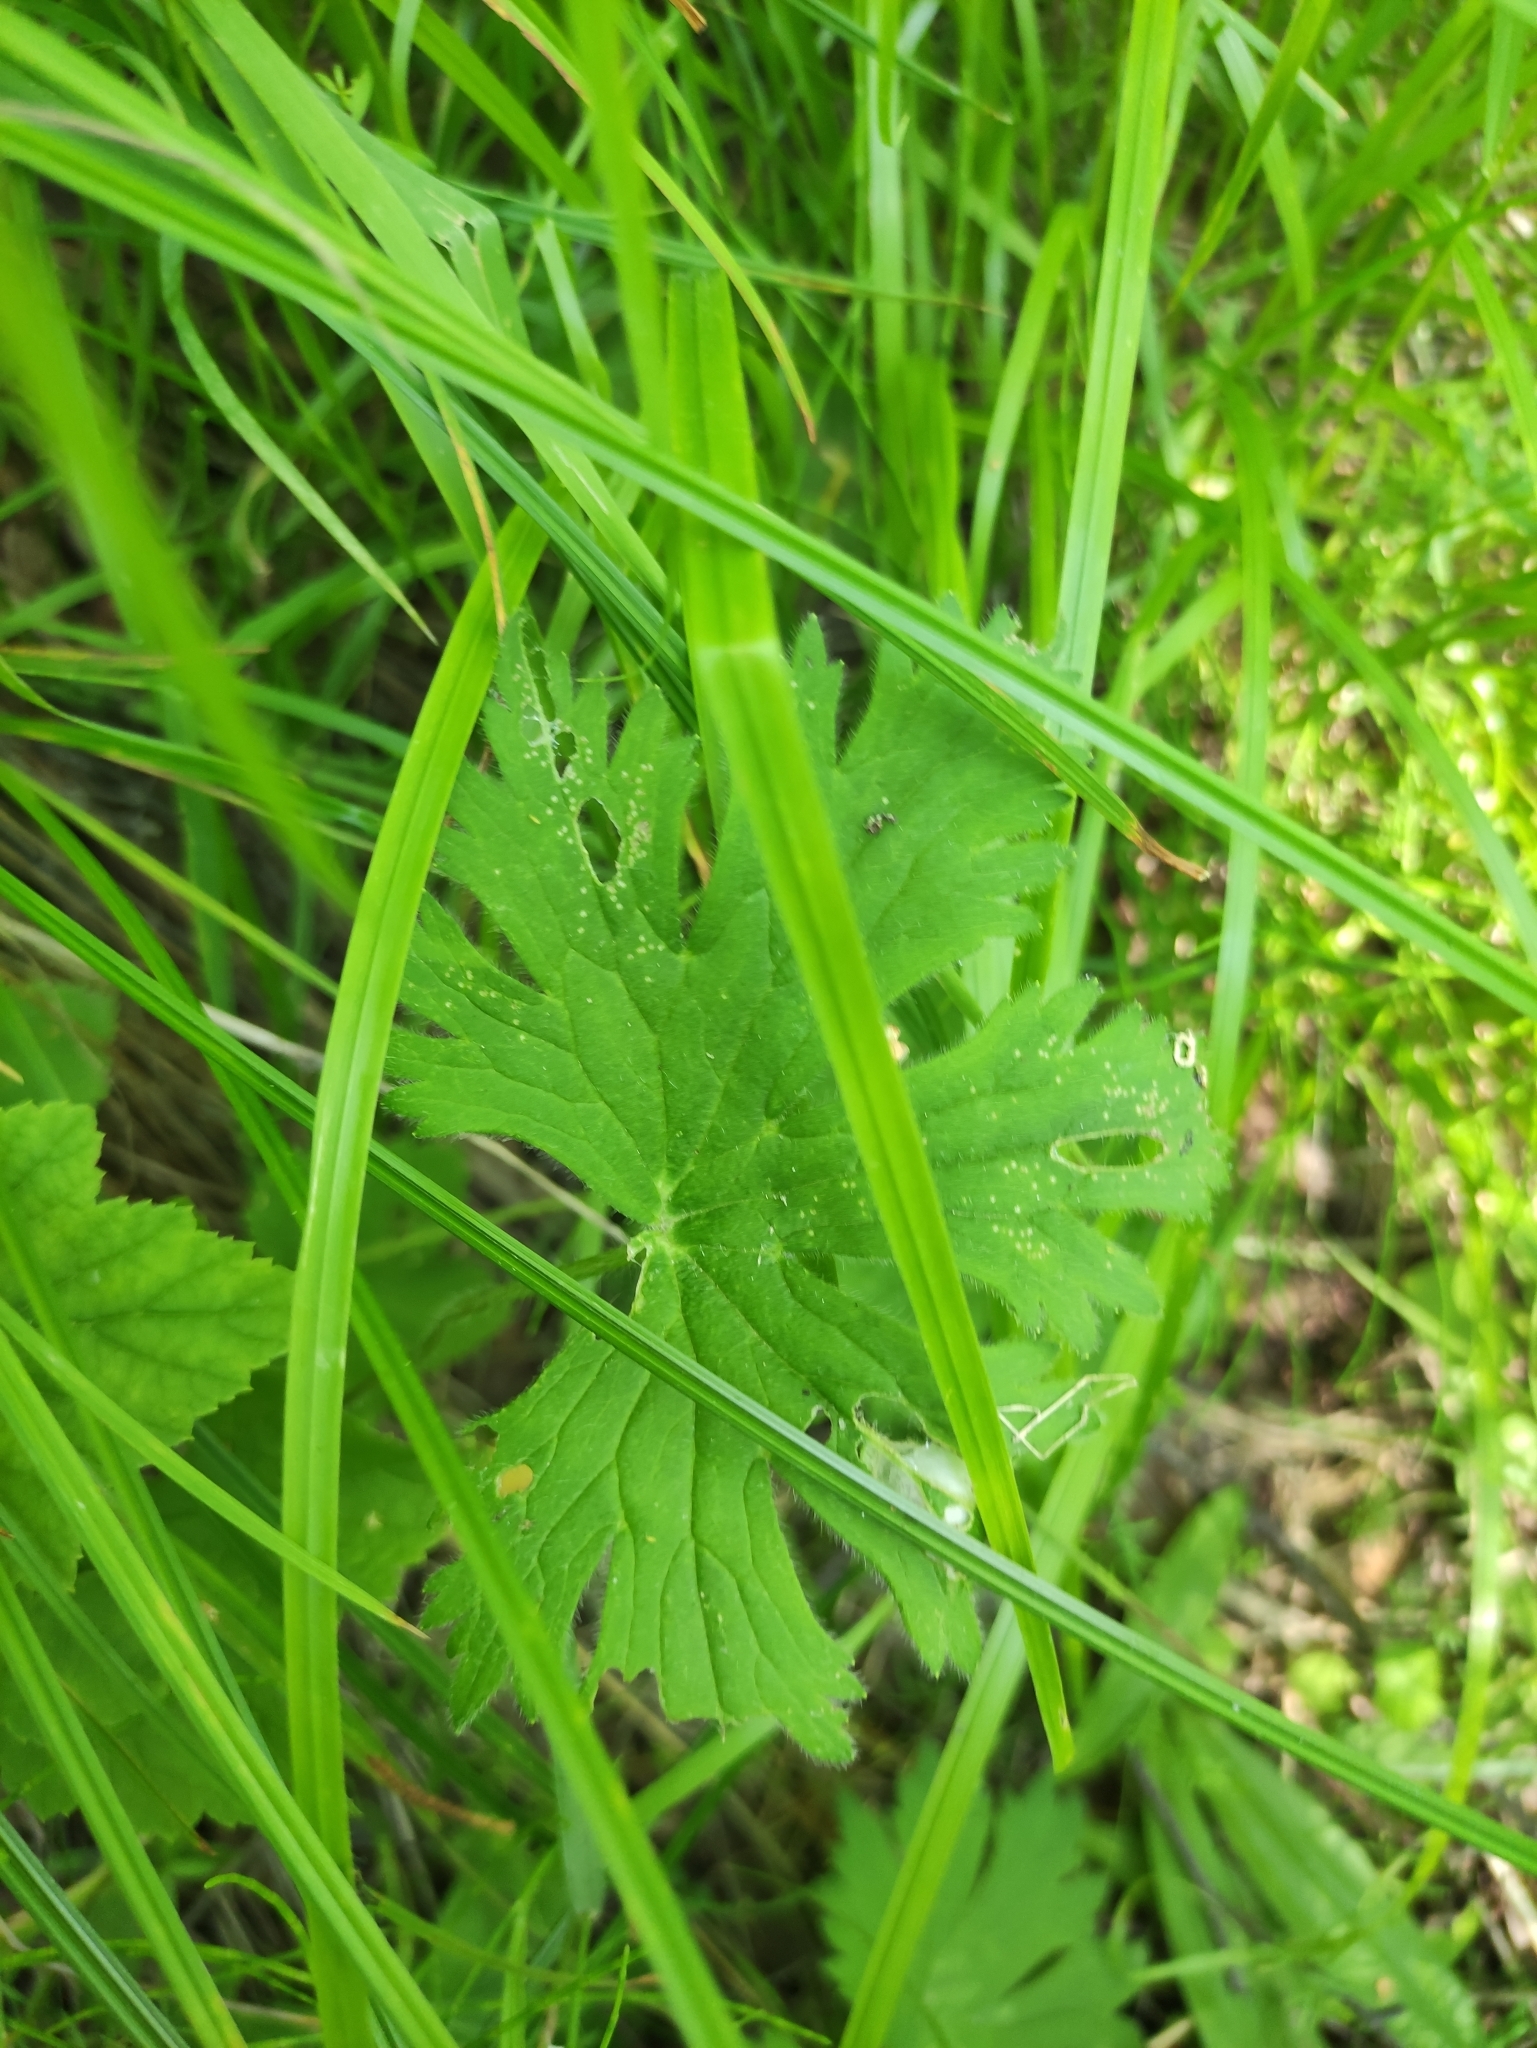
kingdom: Plantae
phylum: Tracheophyta
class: Magnoliopsida
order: Ranunculales
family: Ranunculaceae
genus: Delphinium
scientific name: Delphinium crassifolium
